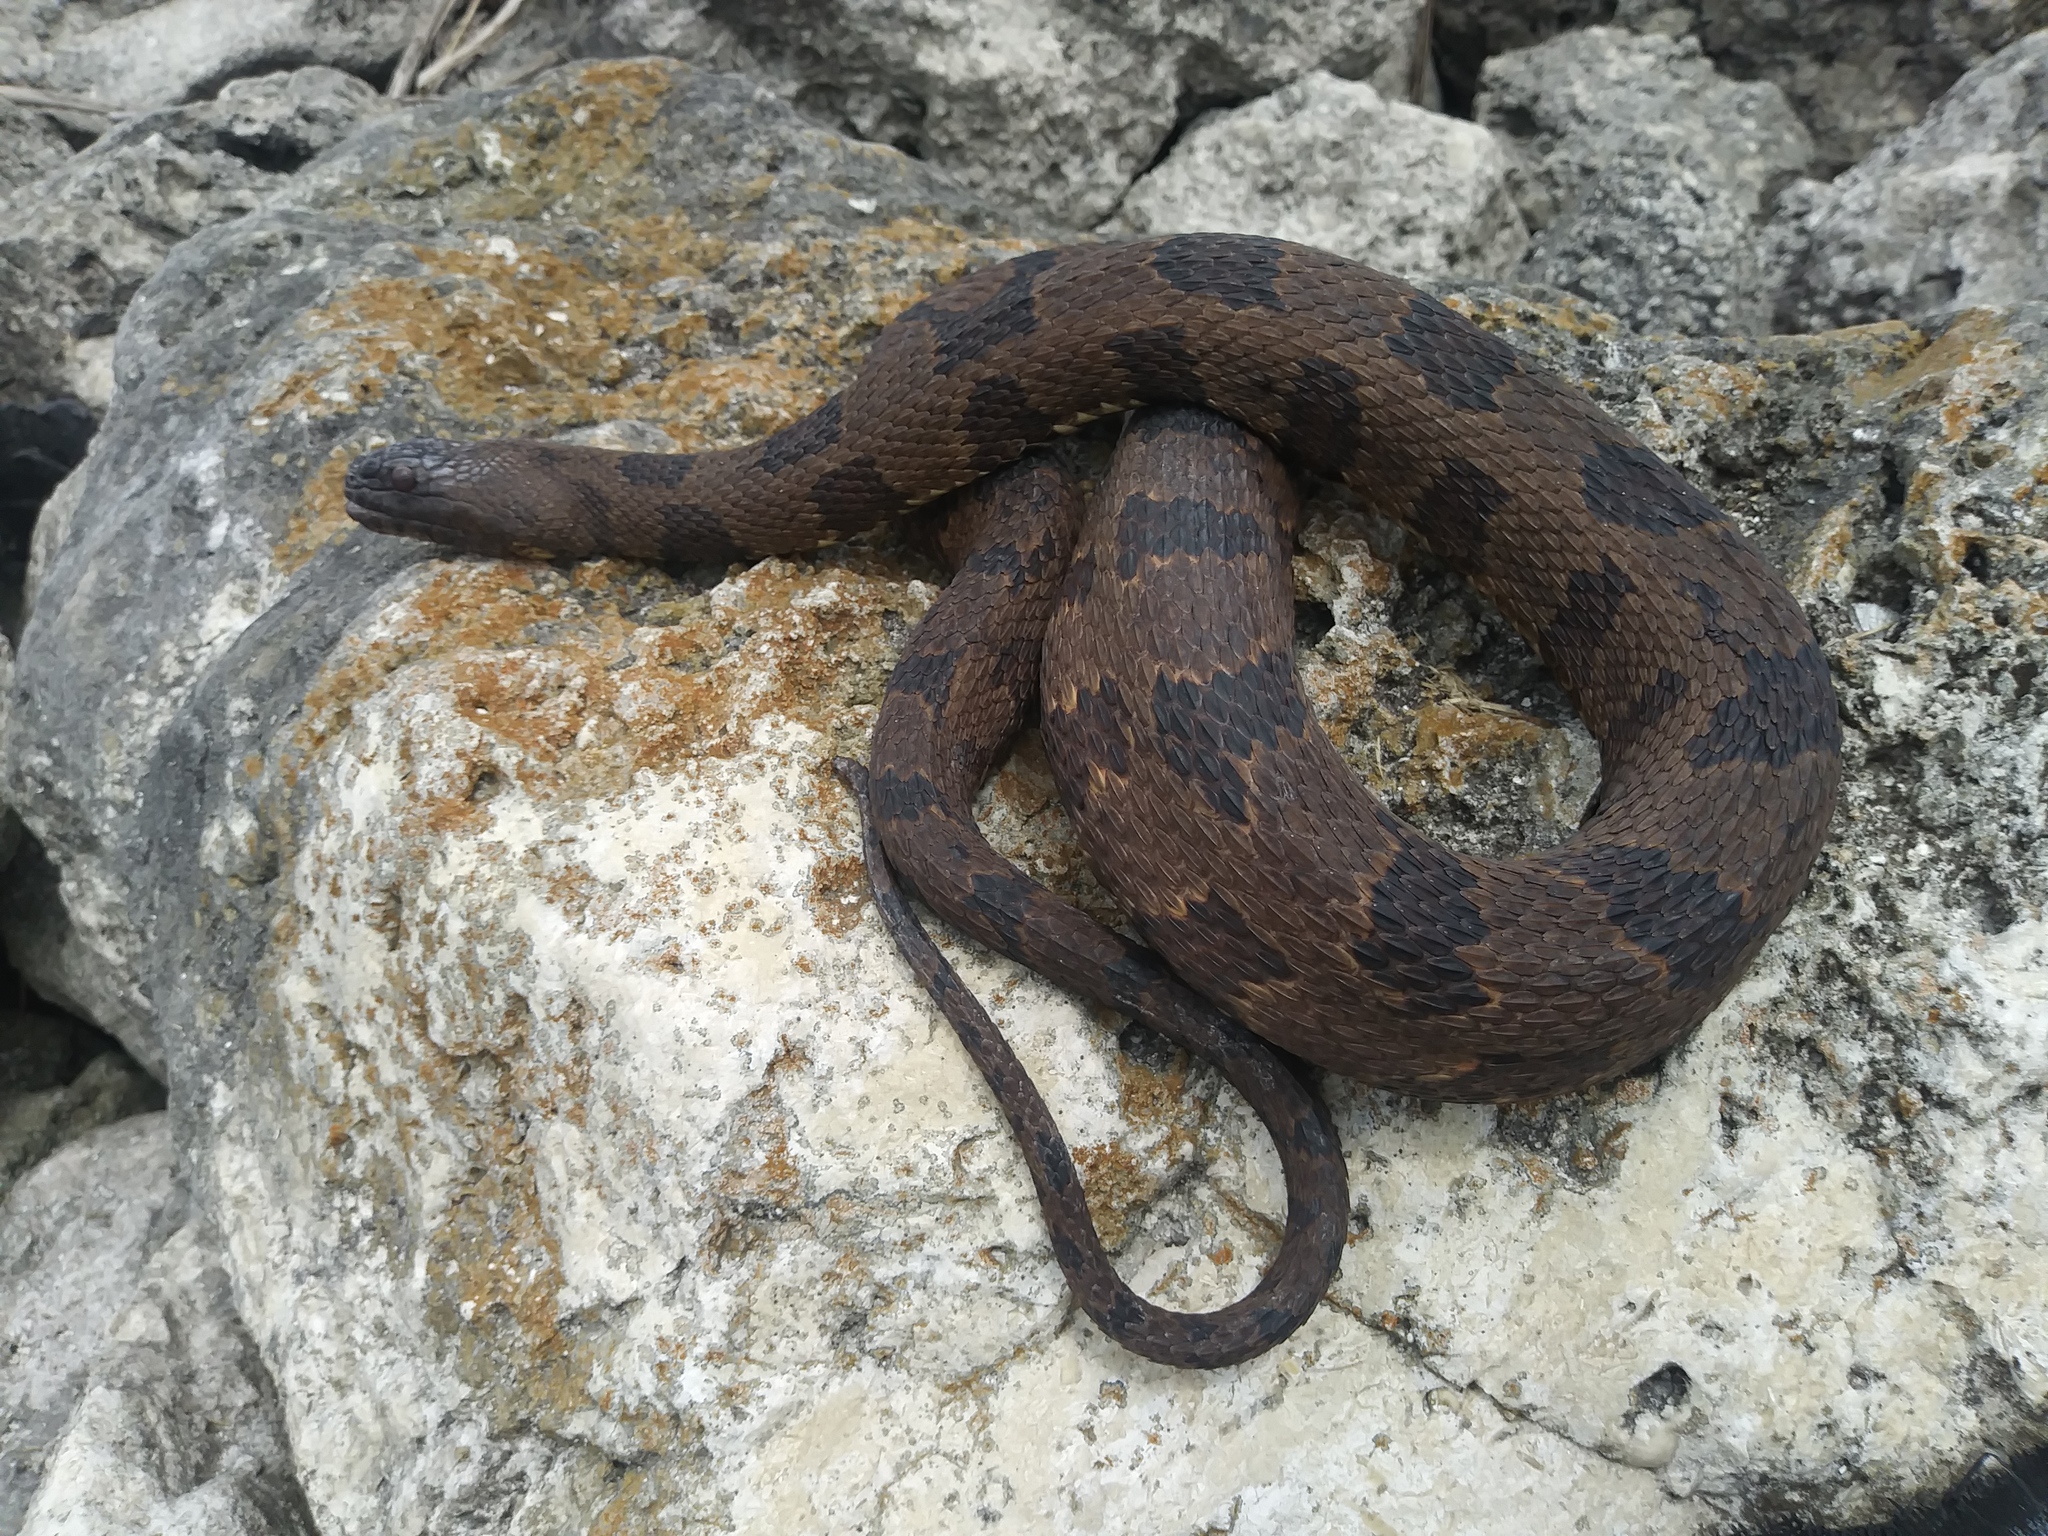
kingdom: Animalia
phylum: Chordata
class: Squamata
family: Colubridae
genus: Nerodia
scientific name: Nerodia taxispilota
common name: Brown water snake
